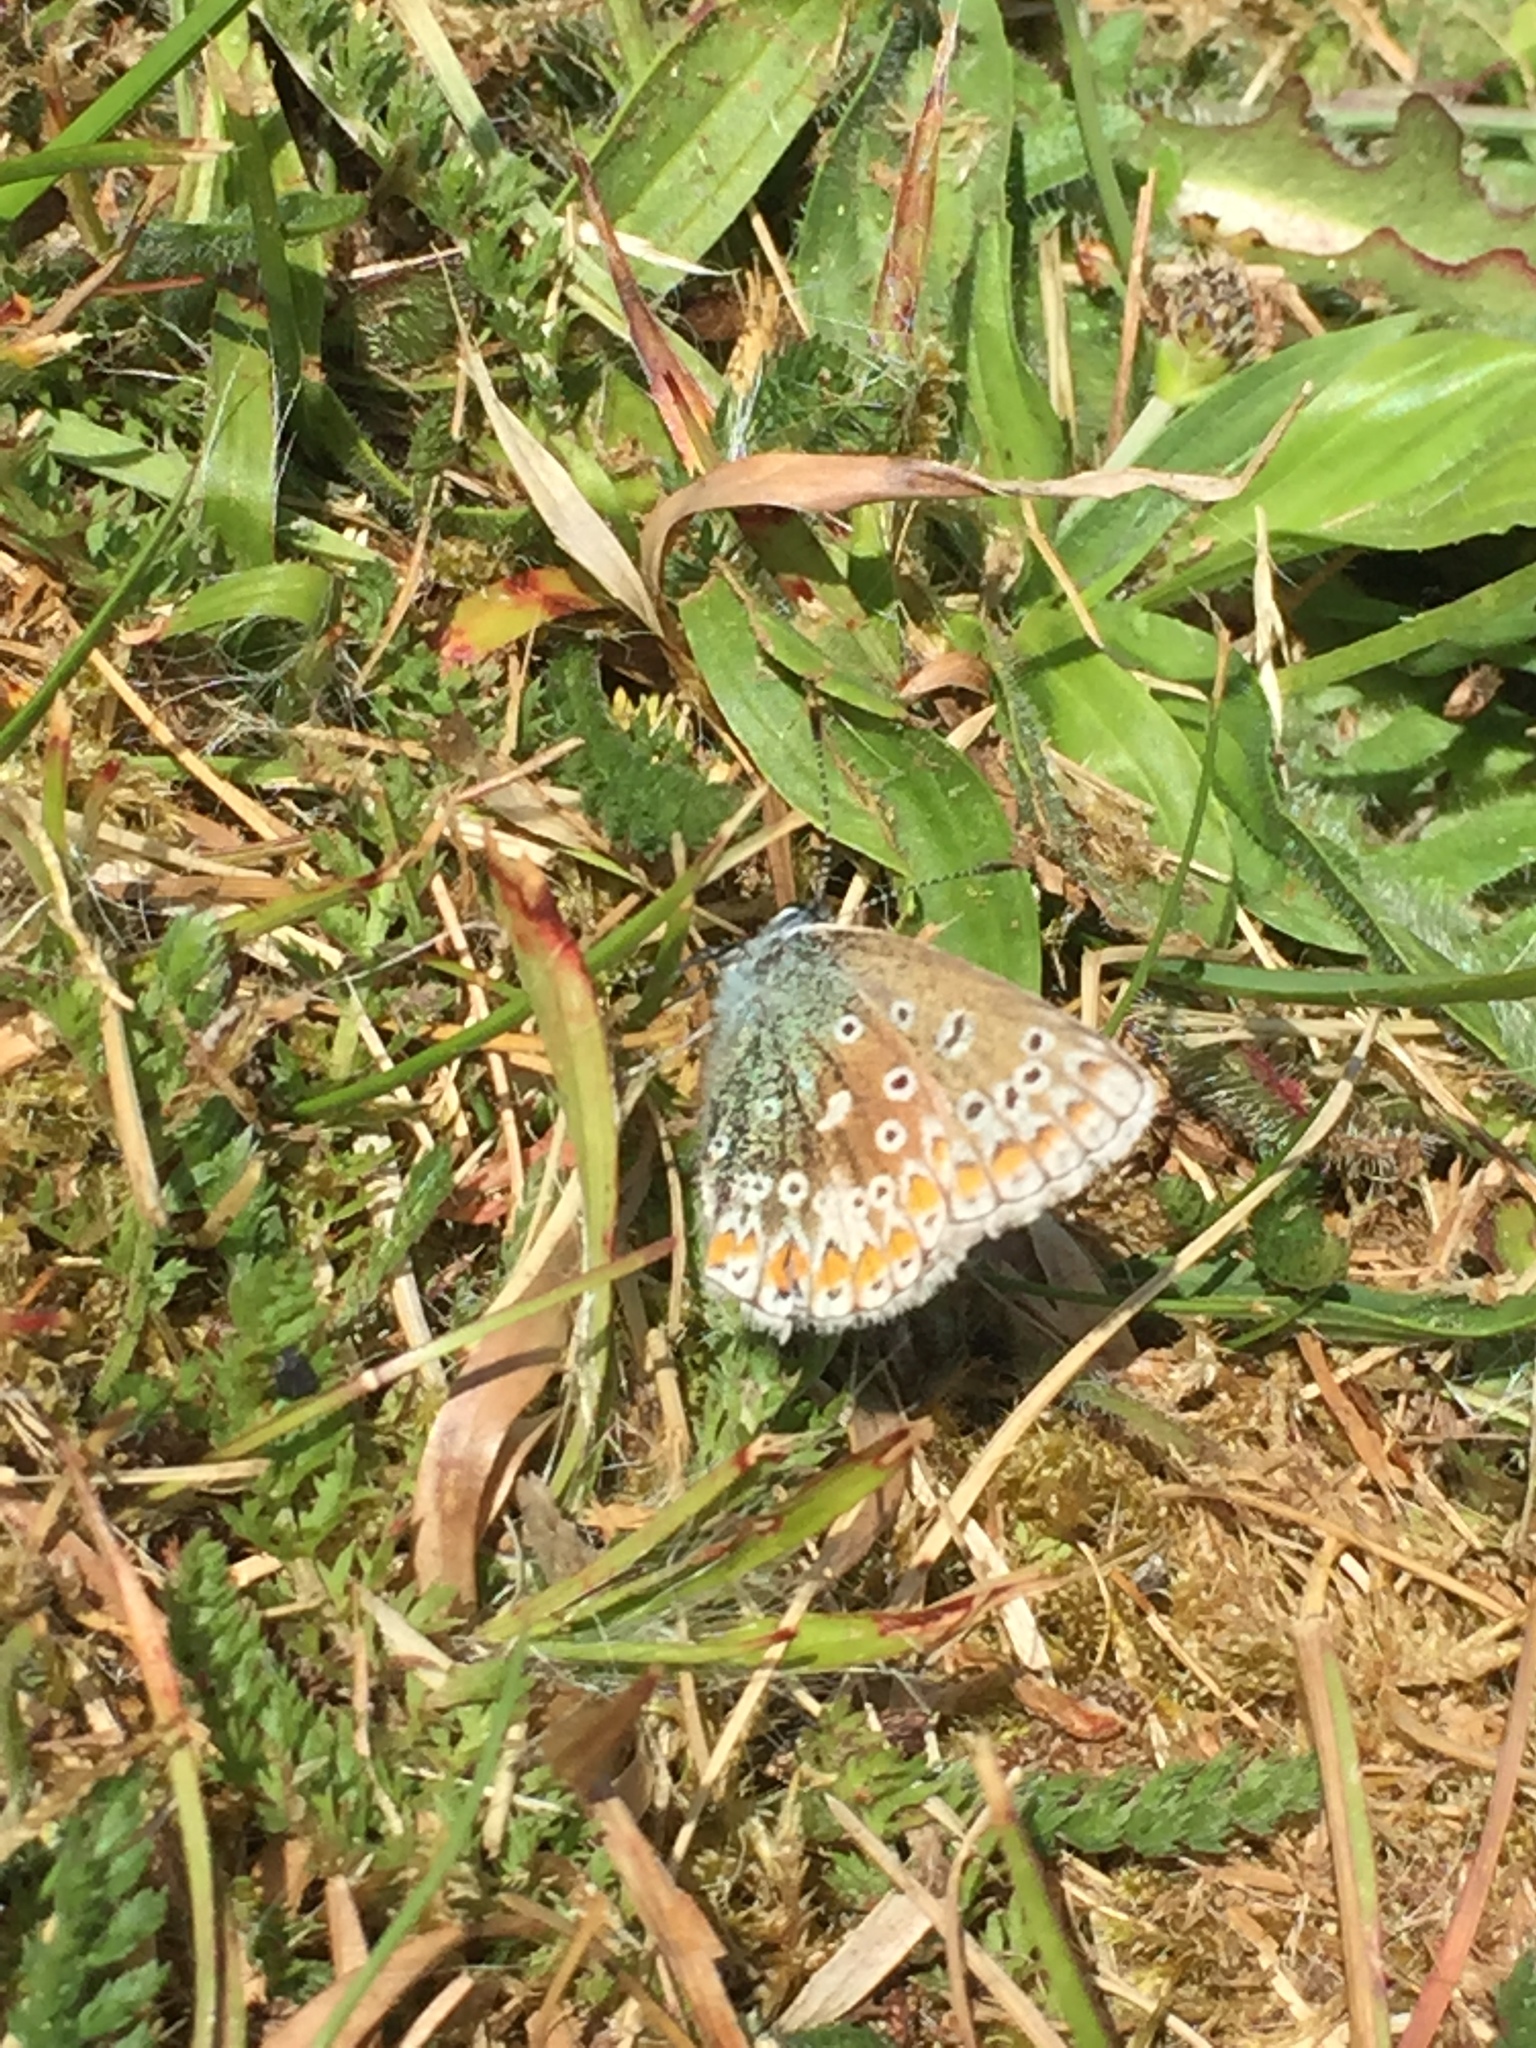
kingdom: Animalia
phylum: Arthropoda
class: Insecta
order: Lepidoptera
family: Lycaenidae
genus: Polyommatus
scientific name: Polyommatus icarus
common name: Common blue
